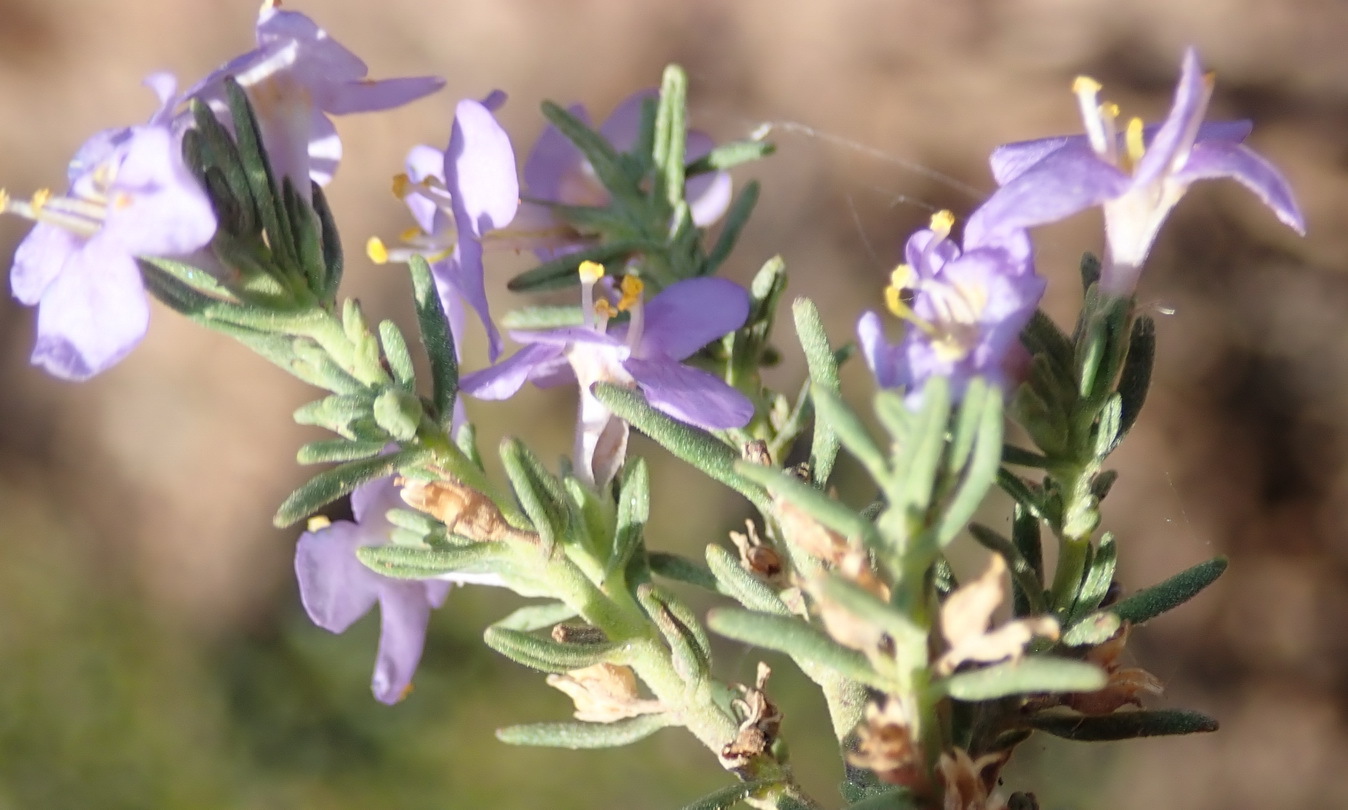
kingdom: Plantae
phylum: Tracheophyta
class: Magnoliopsida
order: Lamiales
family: Scrophulariaceae
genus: Chaenostoma
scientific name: Chaenostoma revolutum
